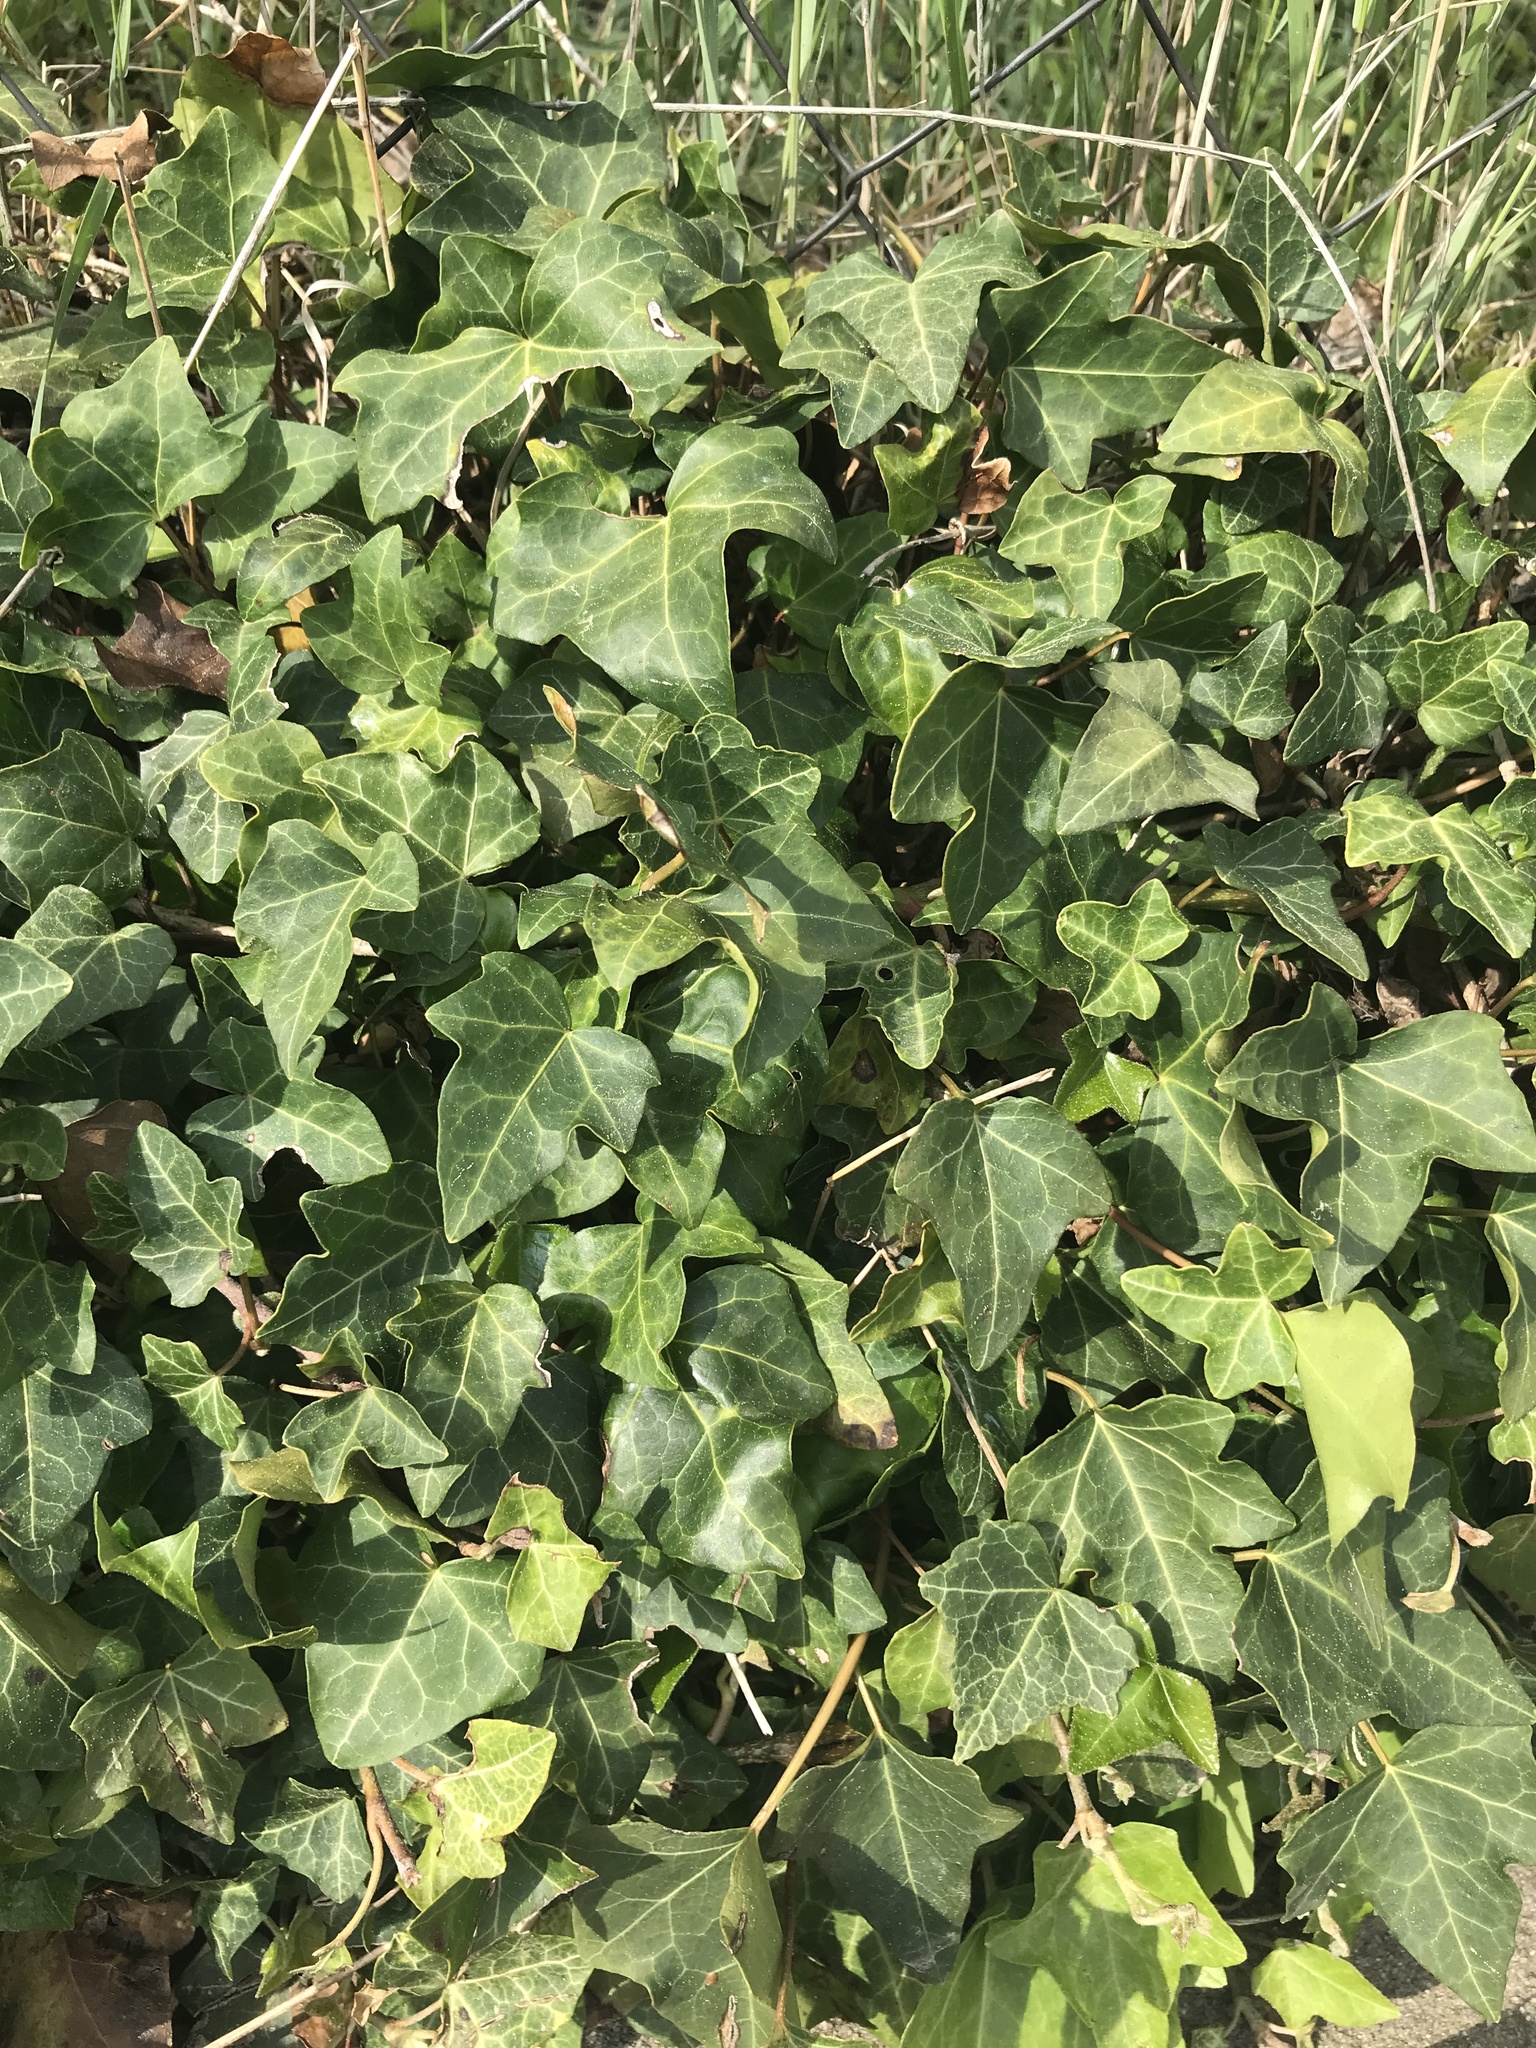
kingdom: Plantae
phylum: Tracheophyta
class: Magnoliopsida
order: Apiales
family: Araliaceae
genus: Hedera
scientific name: Hedera helix
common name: Ivy
